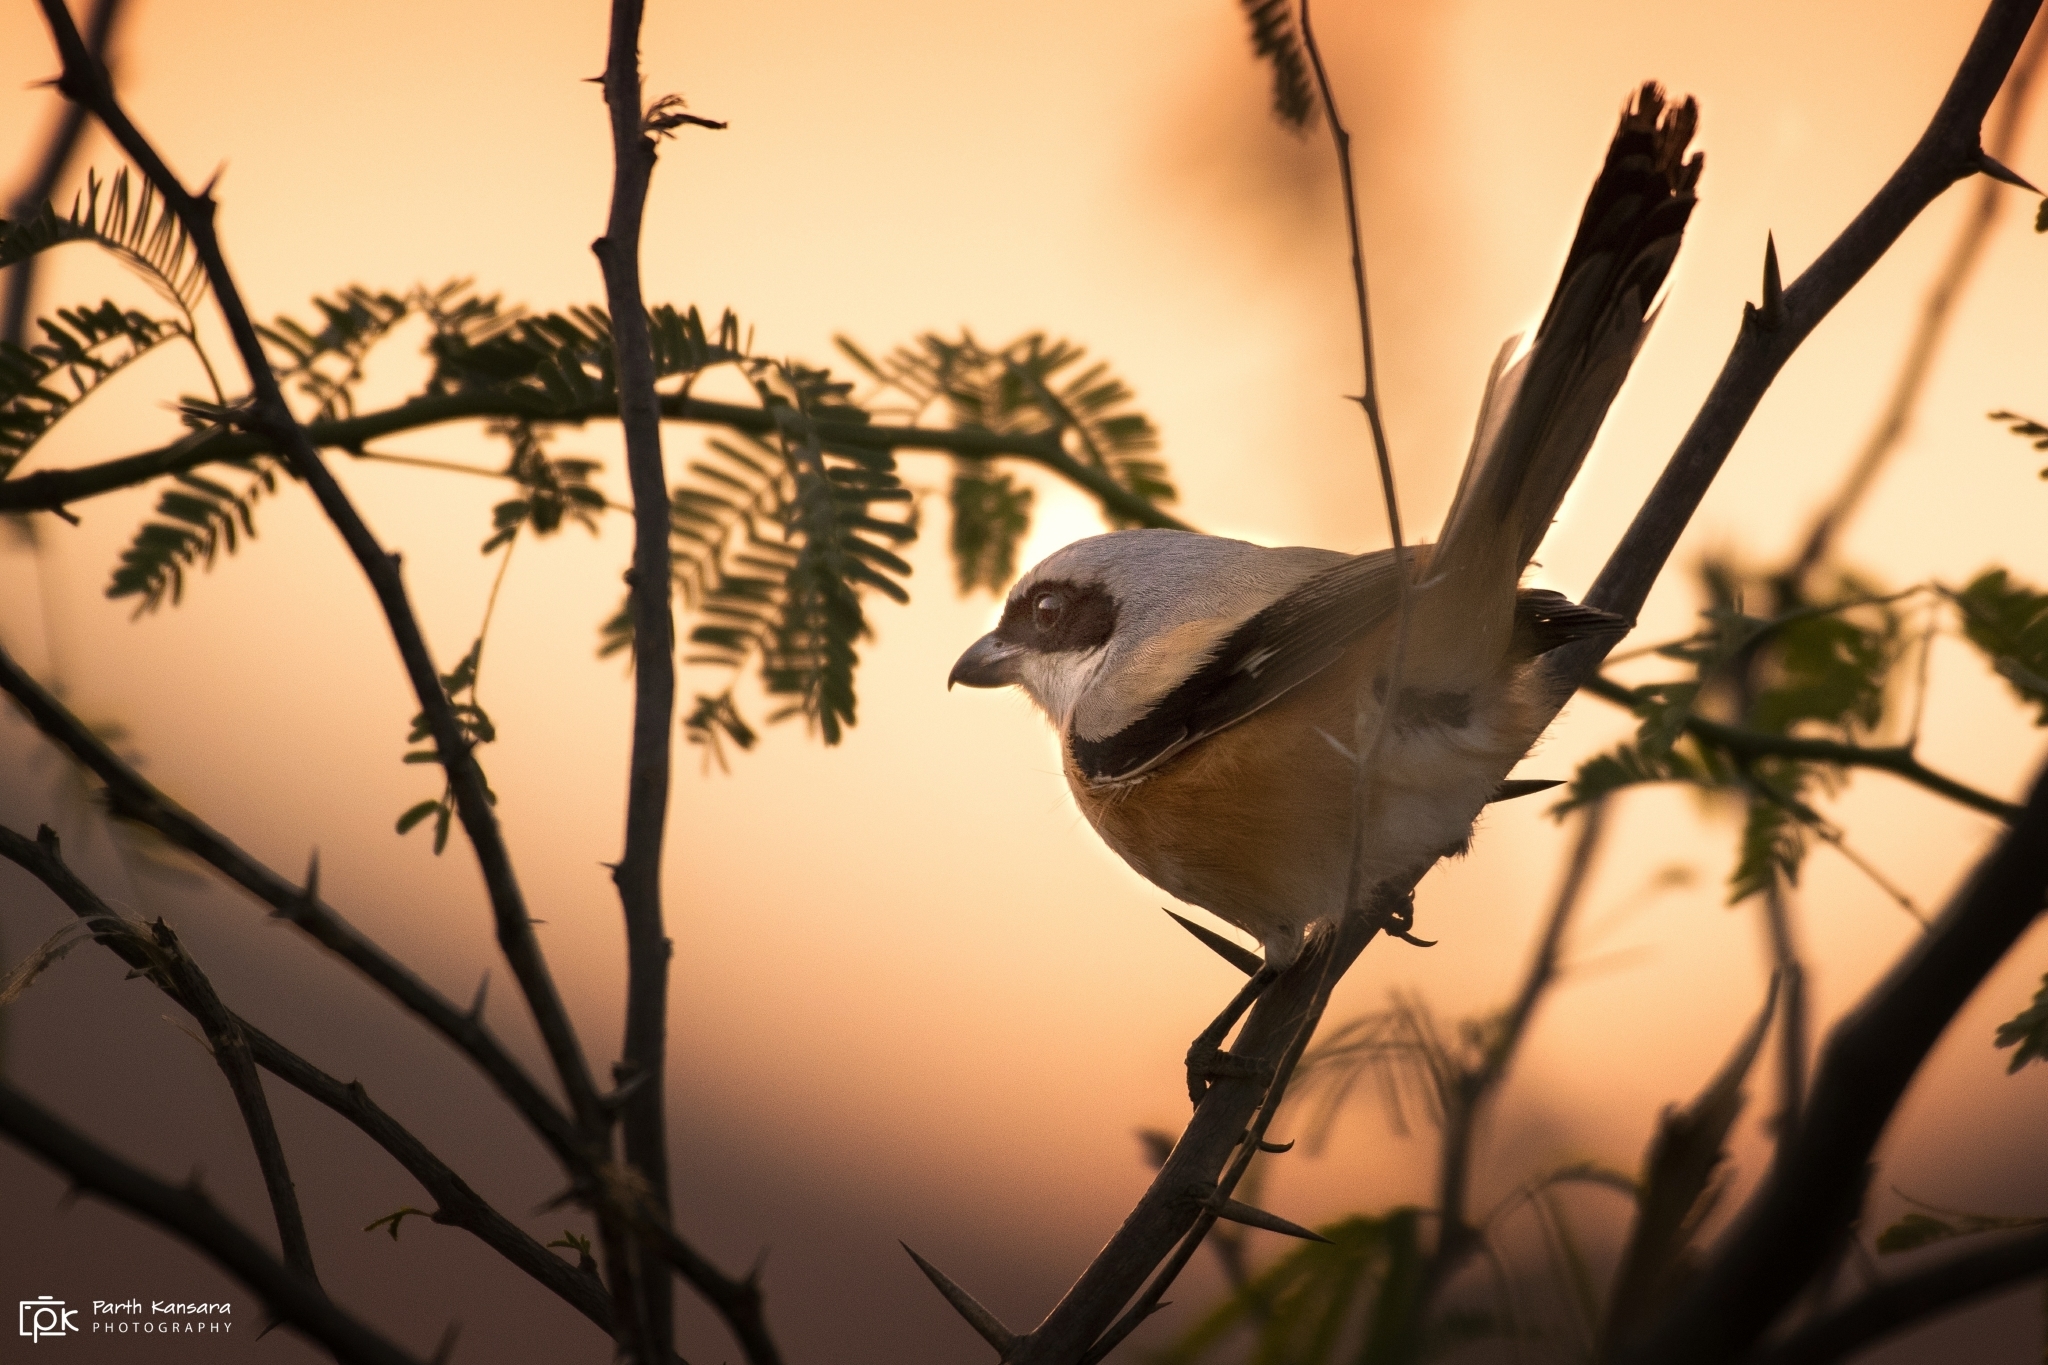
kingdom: Animalia
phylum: Chordata
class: Aves
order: Passeriformes
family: Laniidae
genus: Lanius
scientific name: Lanius schach
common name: Long-tailed shrike
